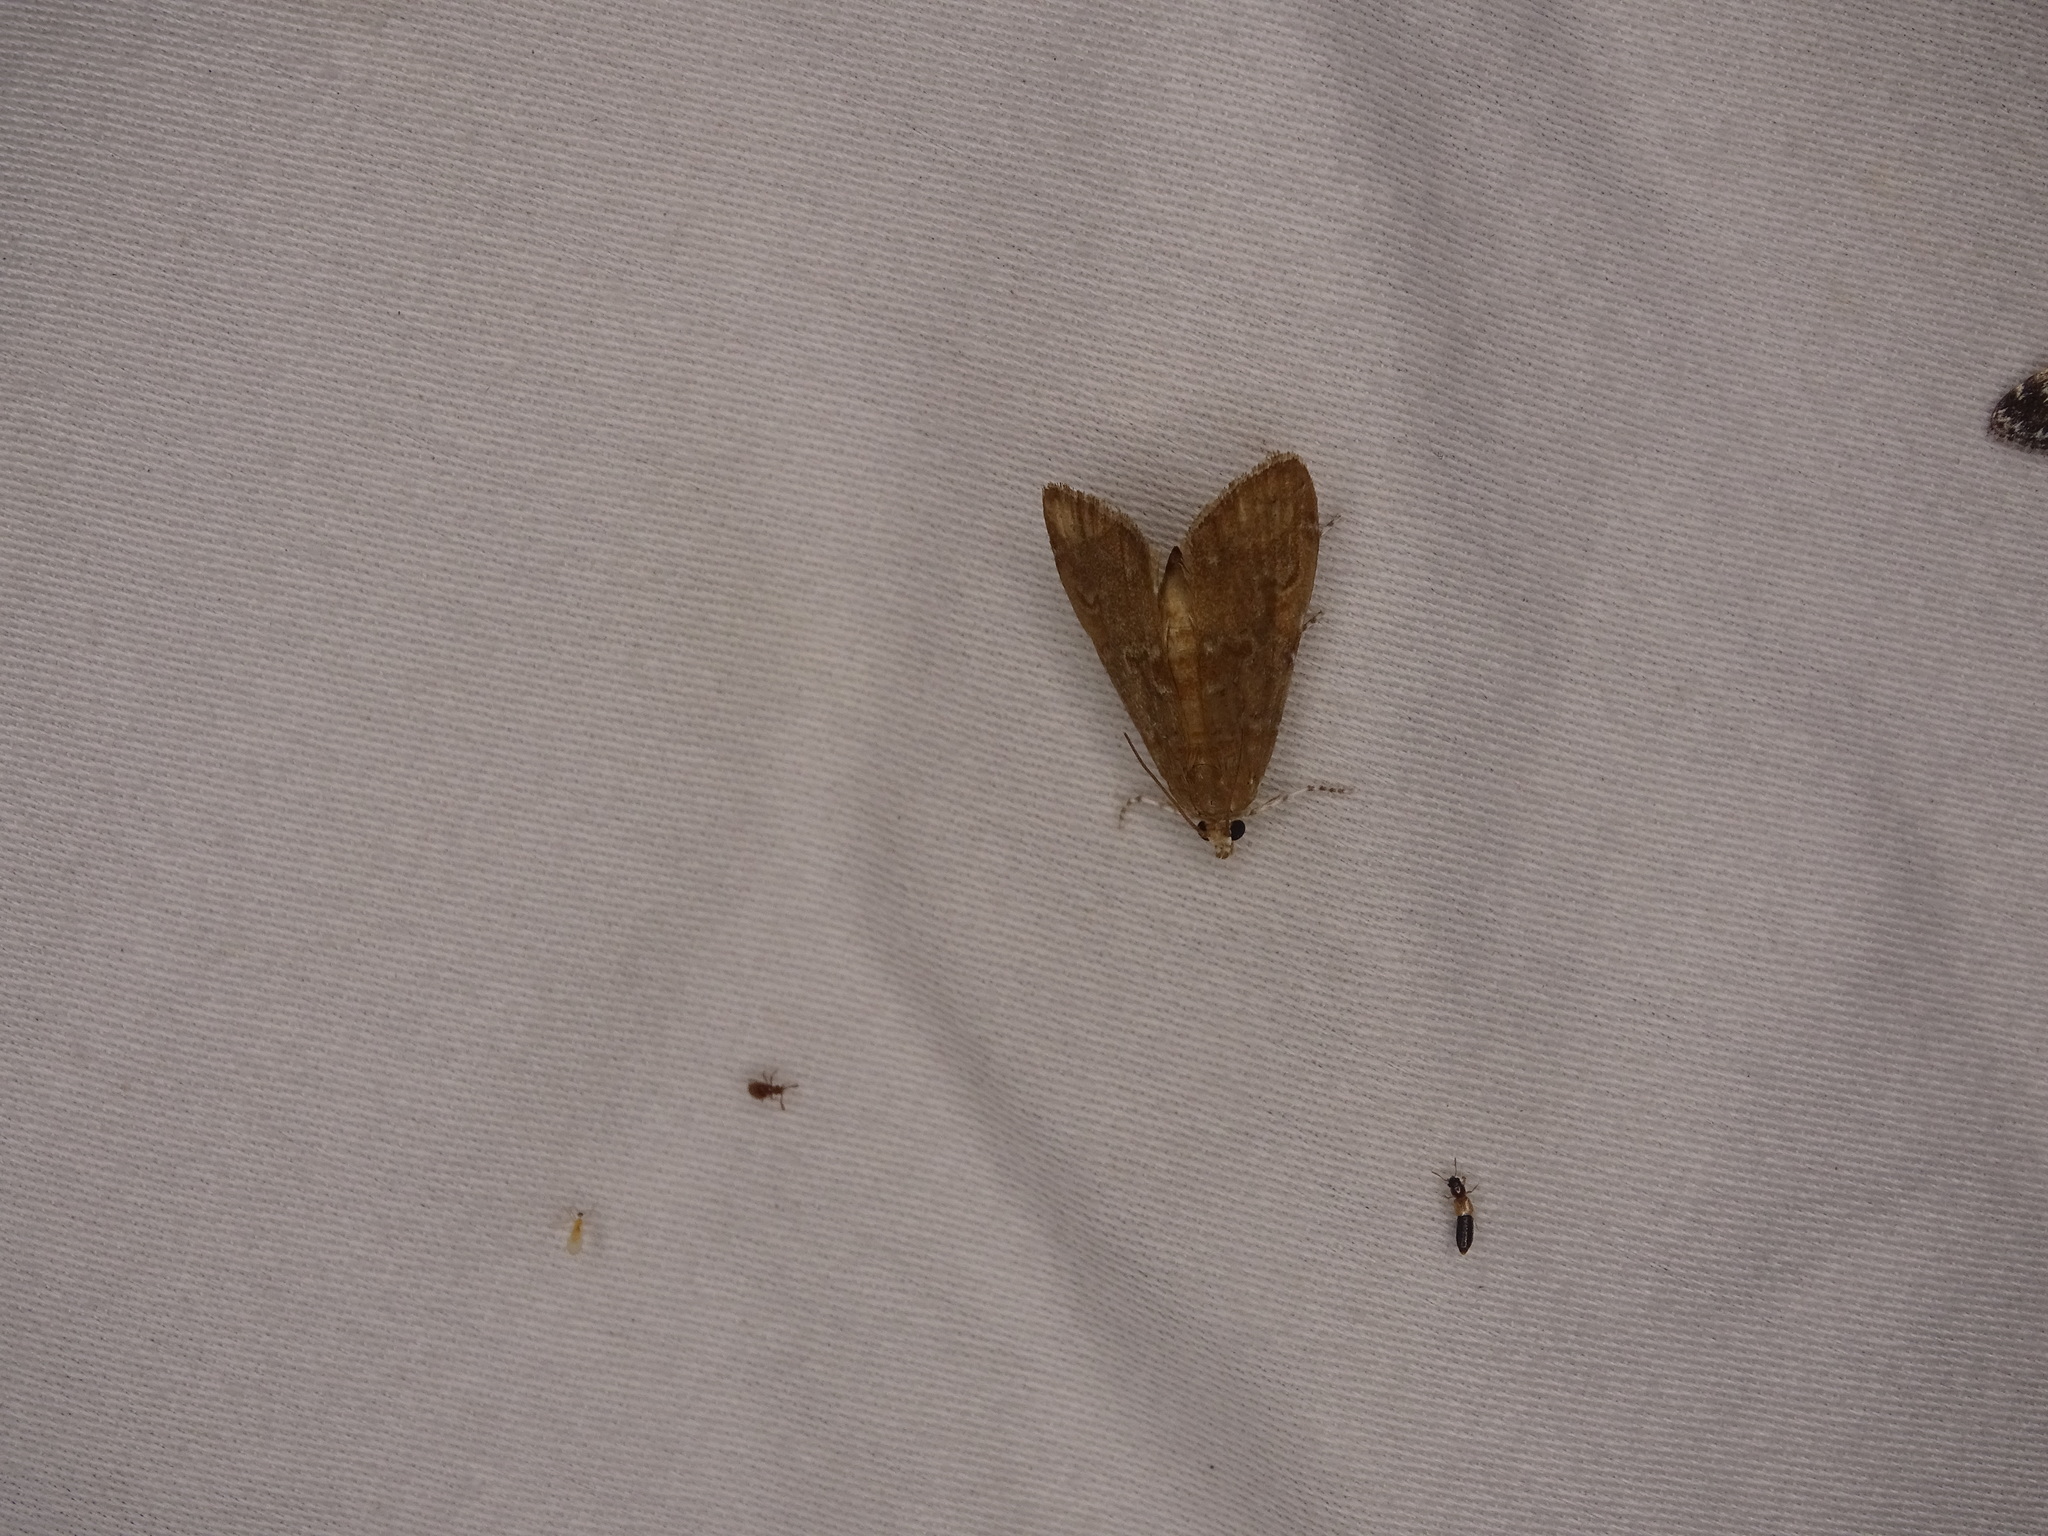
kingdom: Animalia
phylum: Arthropoda
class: Insecta
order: Lepidoptera
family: Crambidae
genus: Elophila
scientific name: Elophila gyralis
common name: Waterlily borer moth
